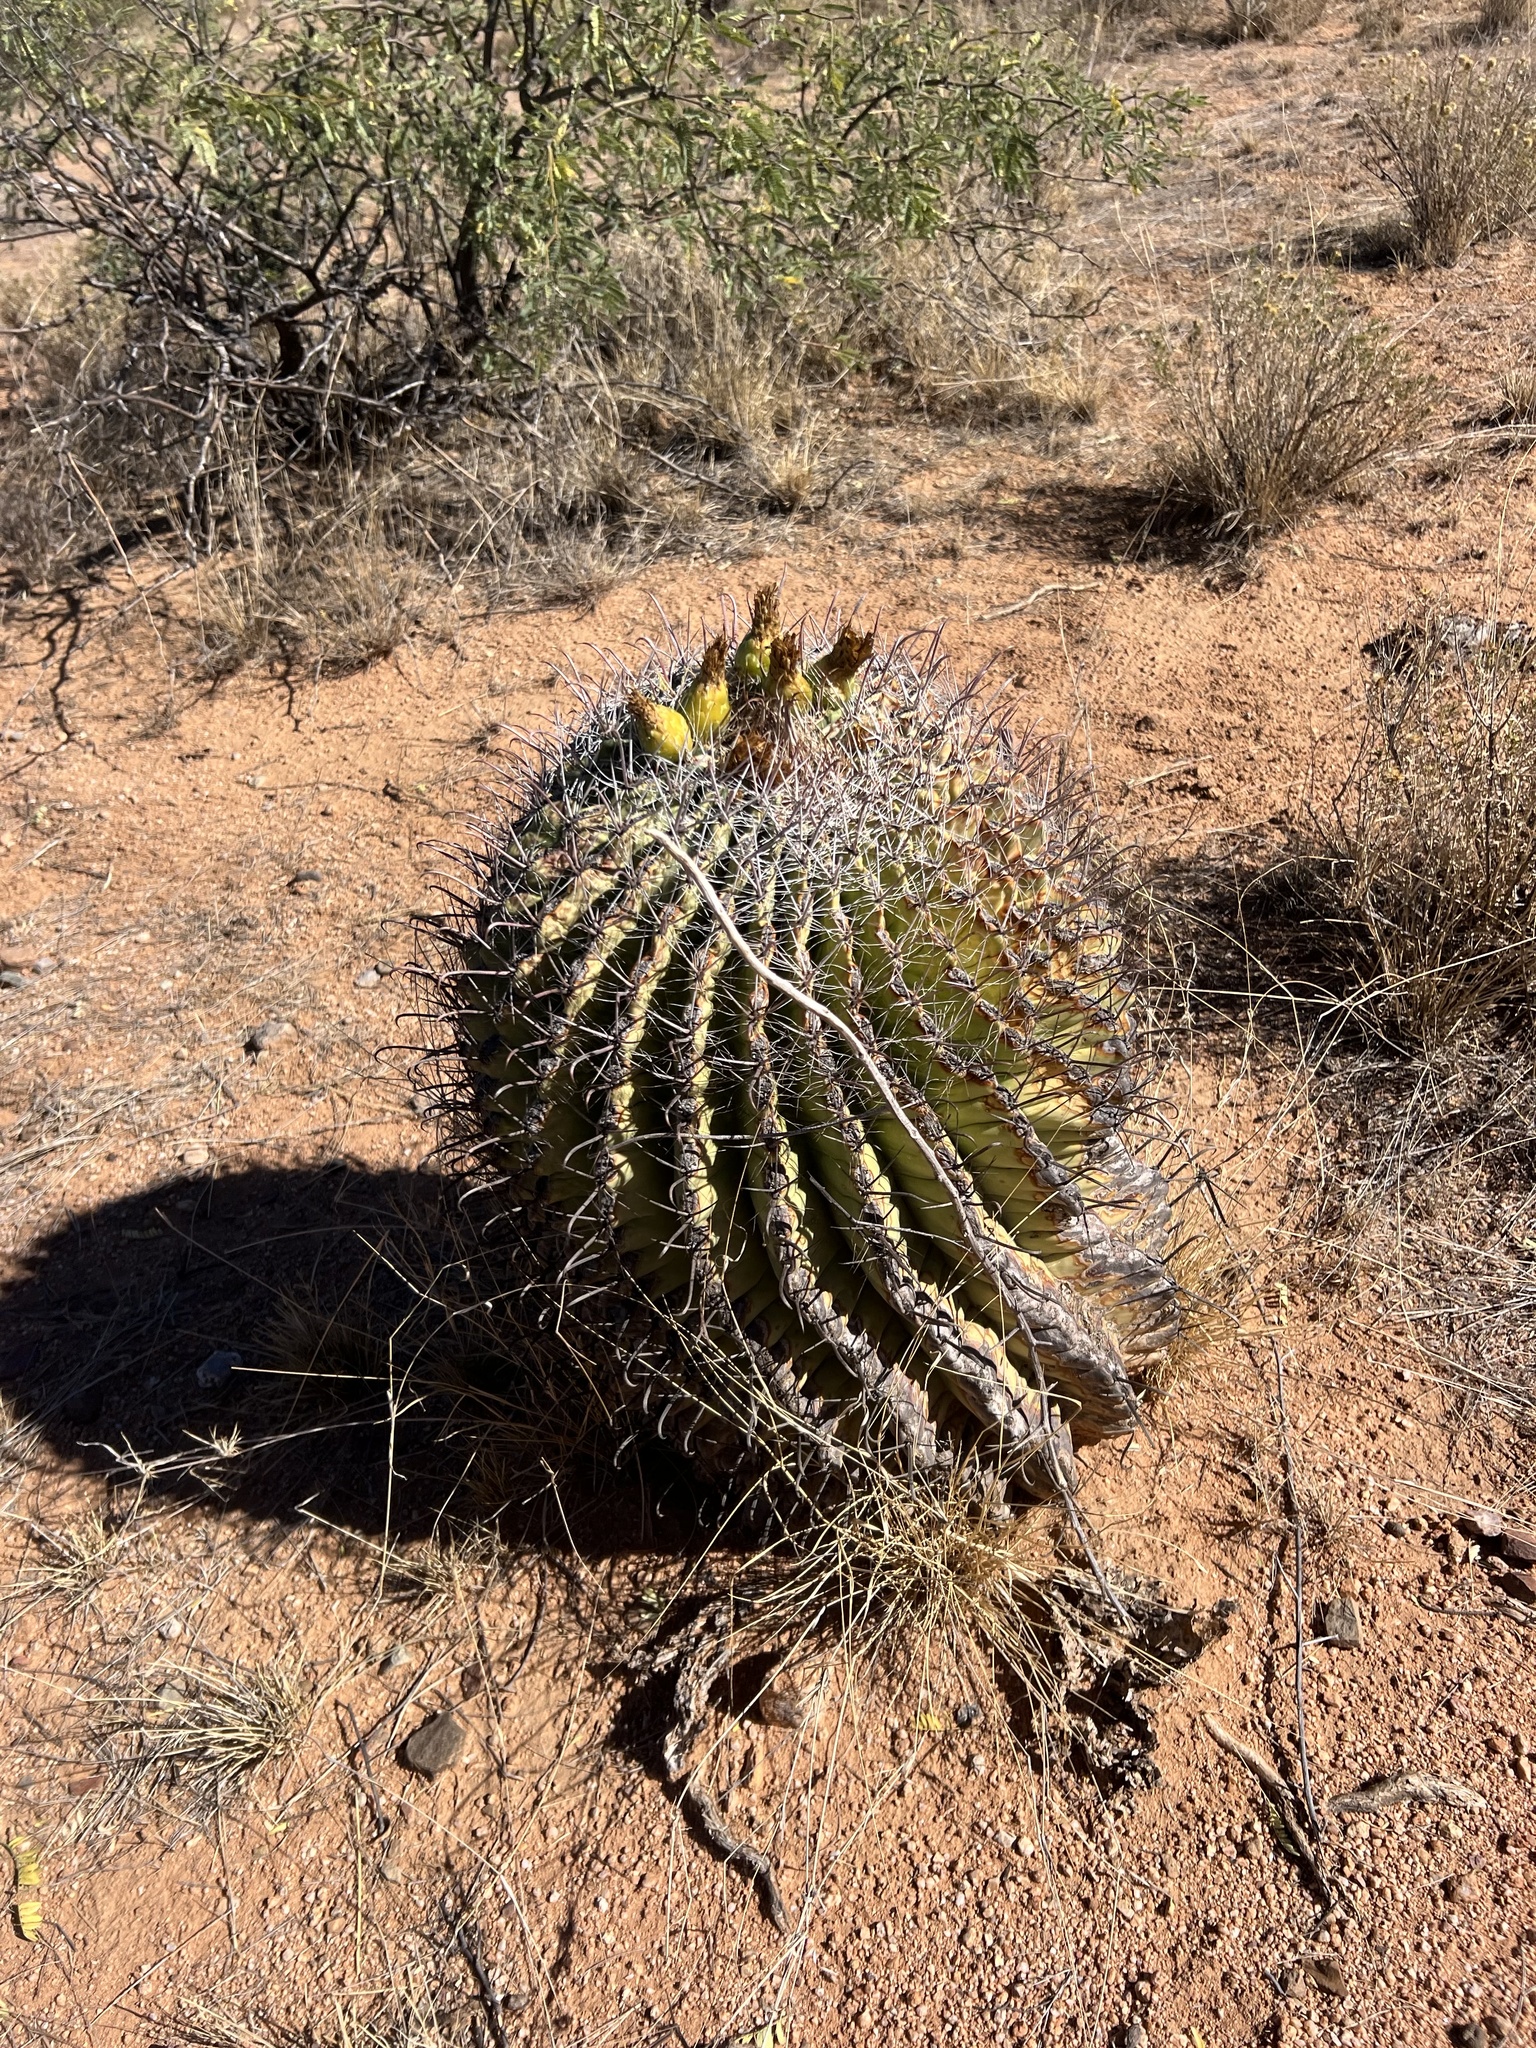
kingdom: Plantae
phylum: Tracheophyta
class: Magnoliopsida
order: Caryophyllales
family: Cactaceae
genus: Ferocactus
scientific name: Ferocactus wislizeni
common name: Candy barrel cactus
